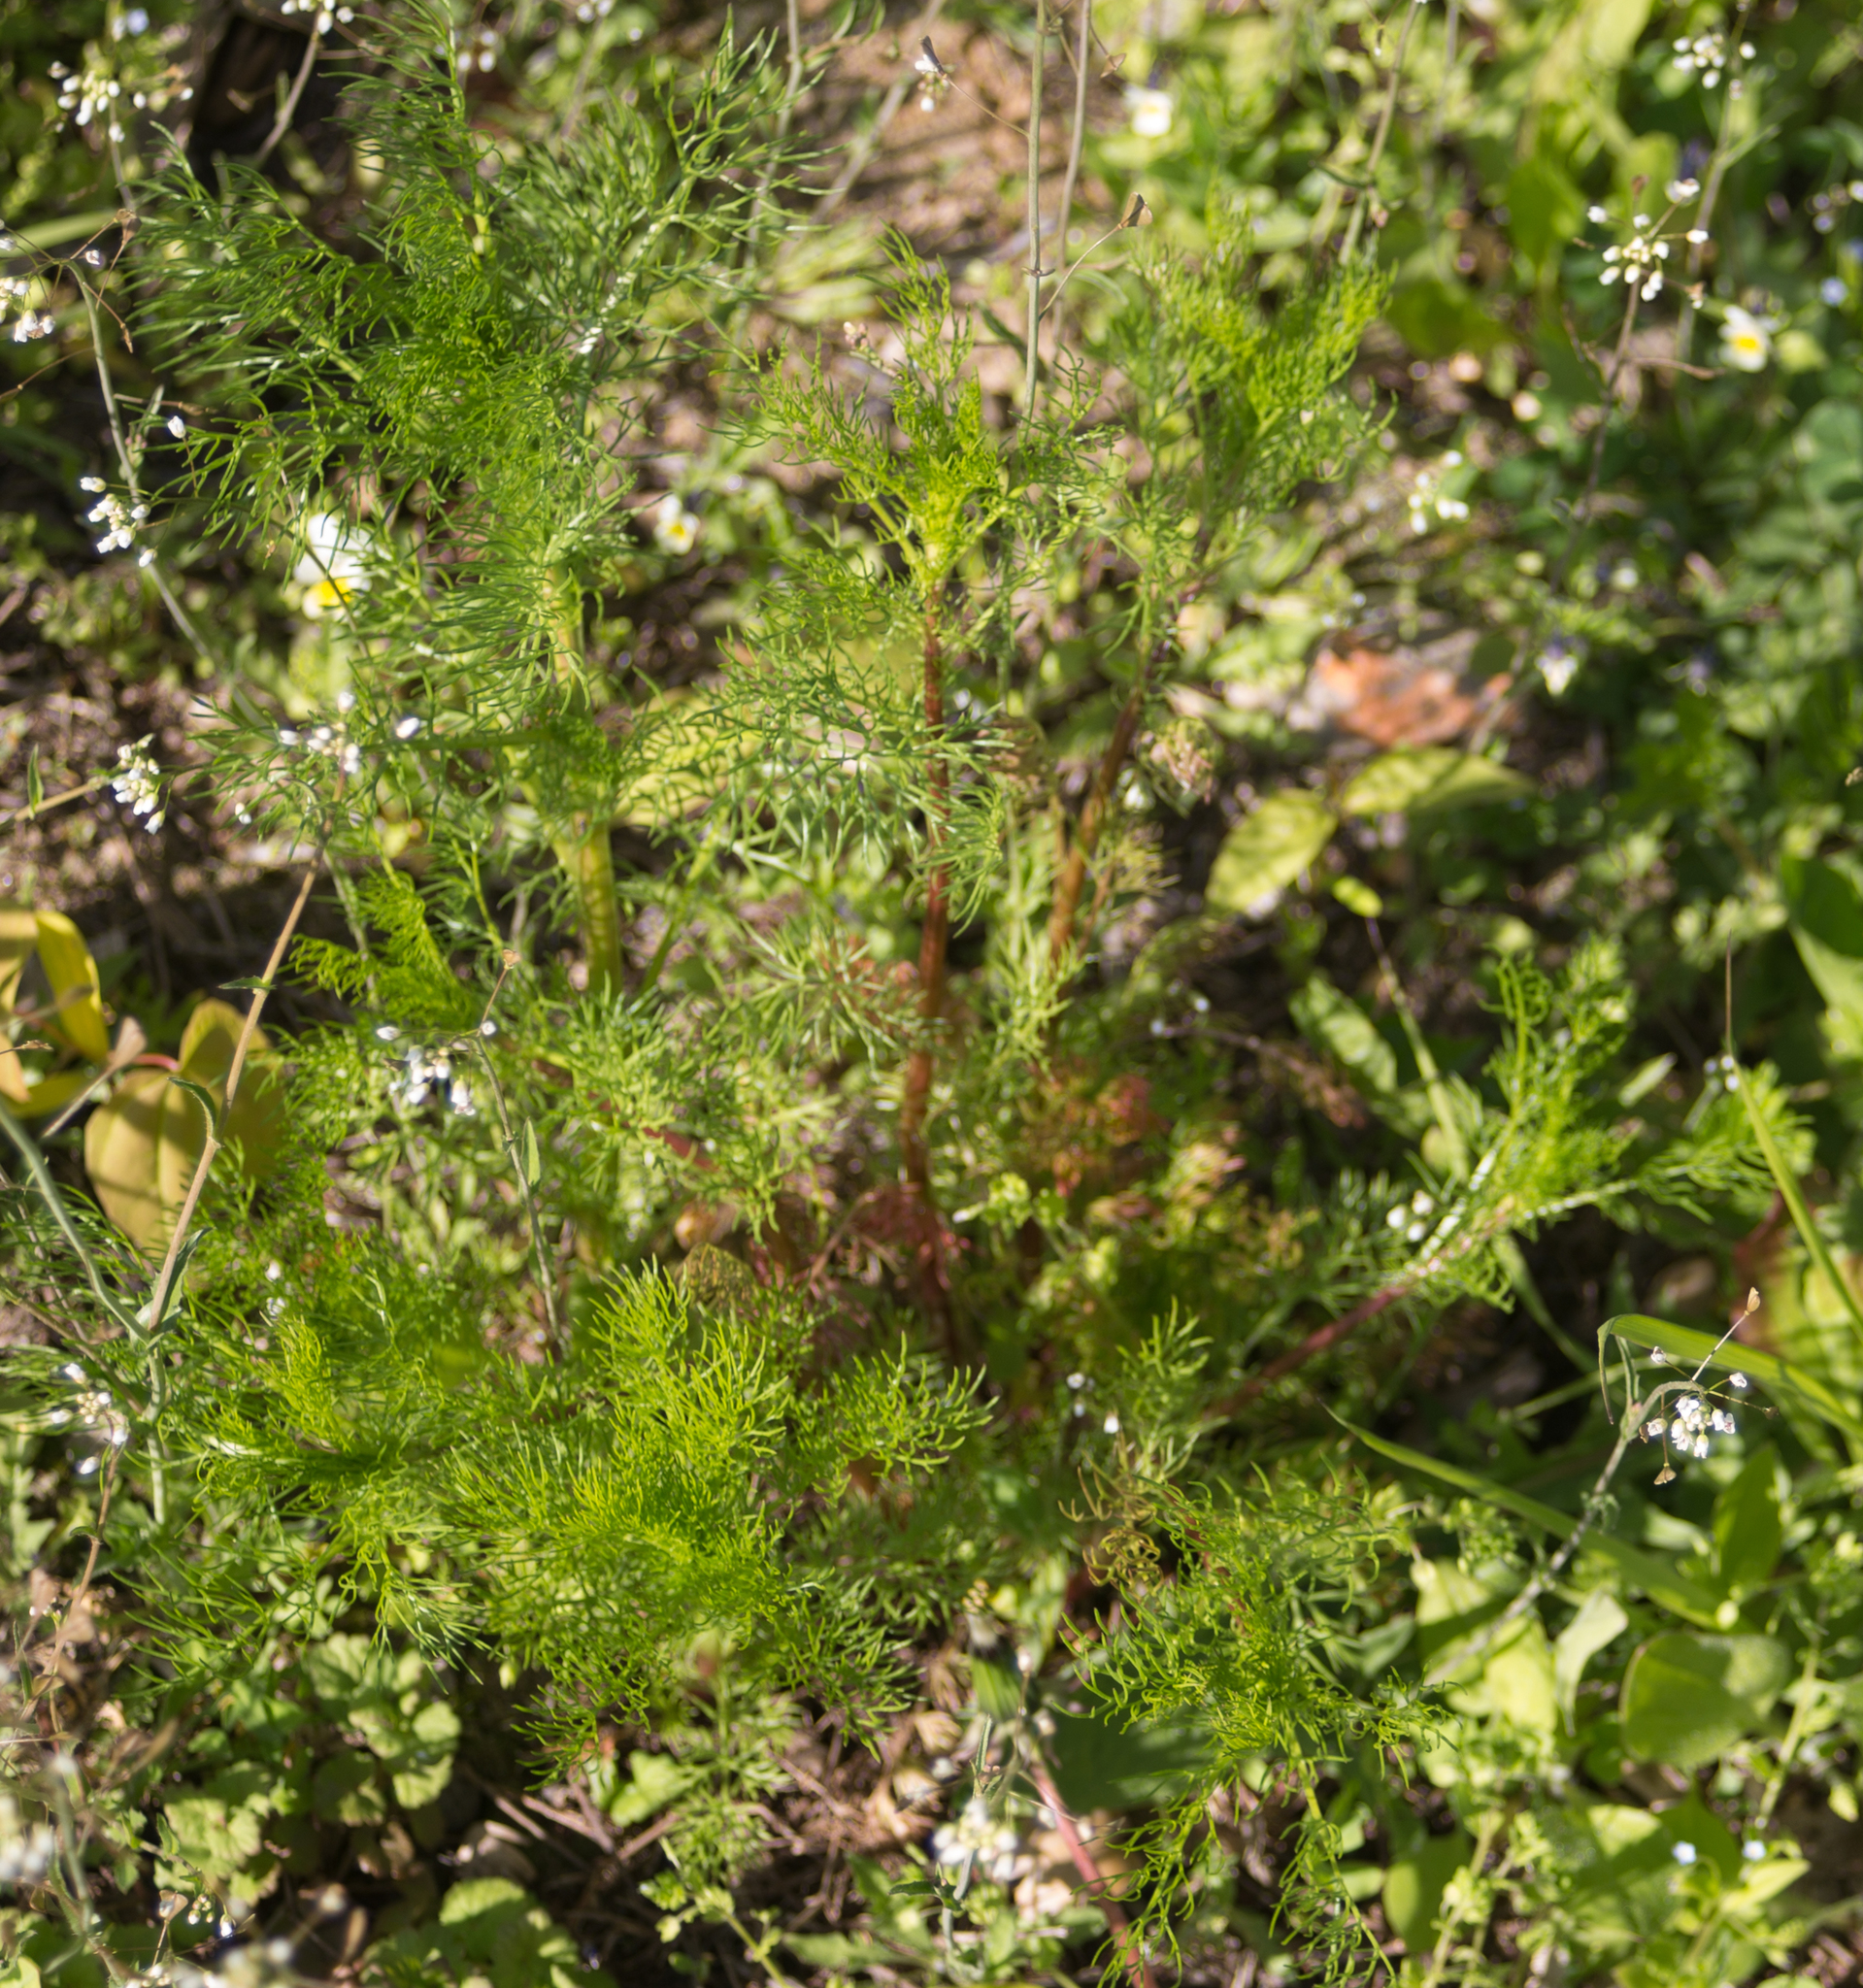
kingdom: Plantae
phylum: Tracheophyta
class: Magnoliopsida
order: Asterales
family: Asteraceae
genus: Tripleurospermum
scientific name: Tripleurospermum inodorum
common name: Scentless mayweed
